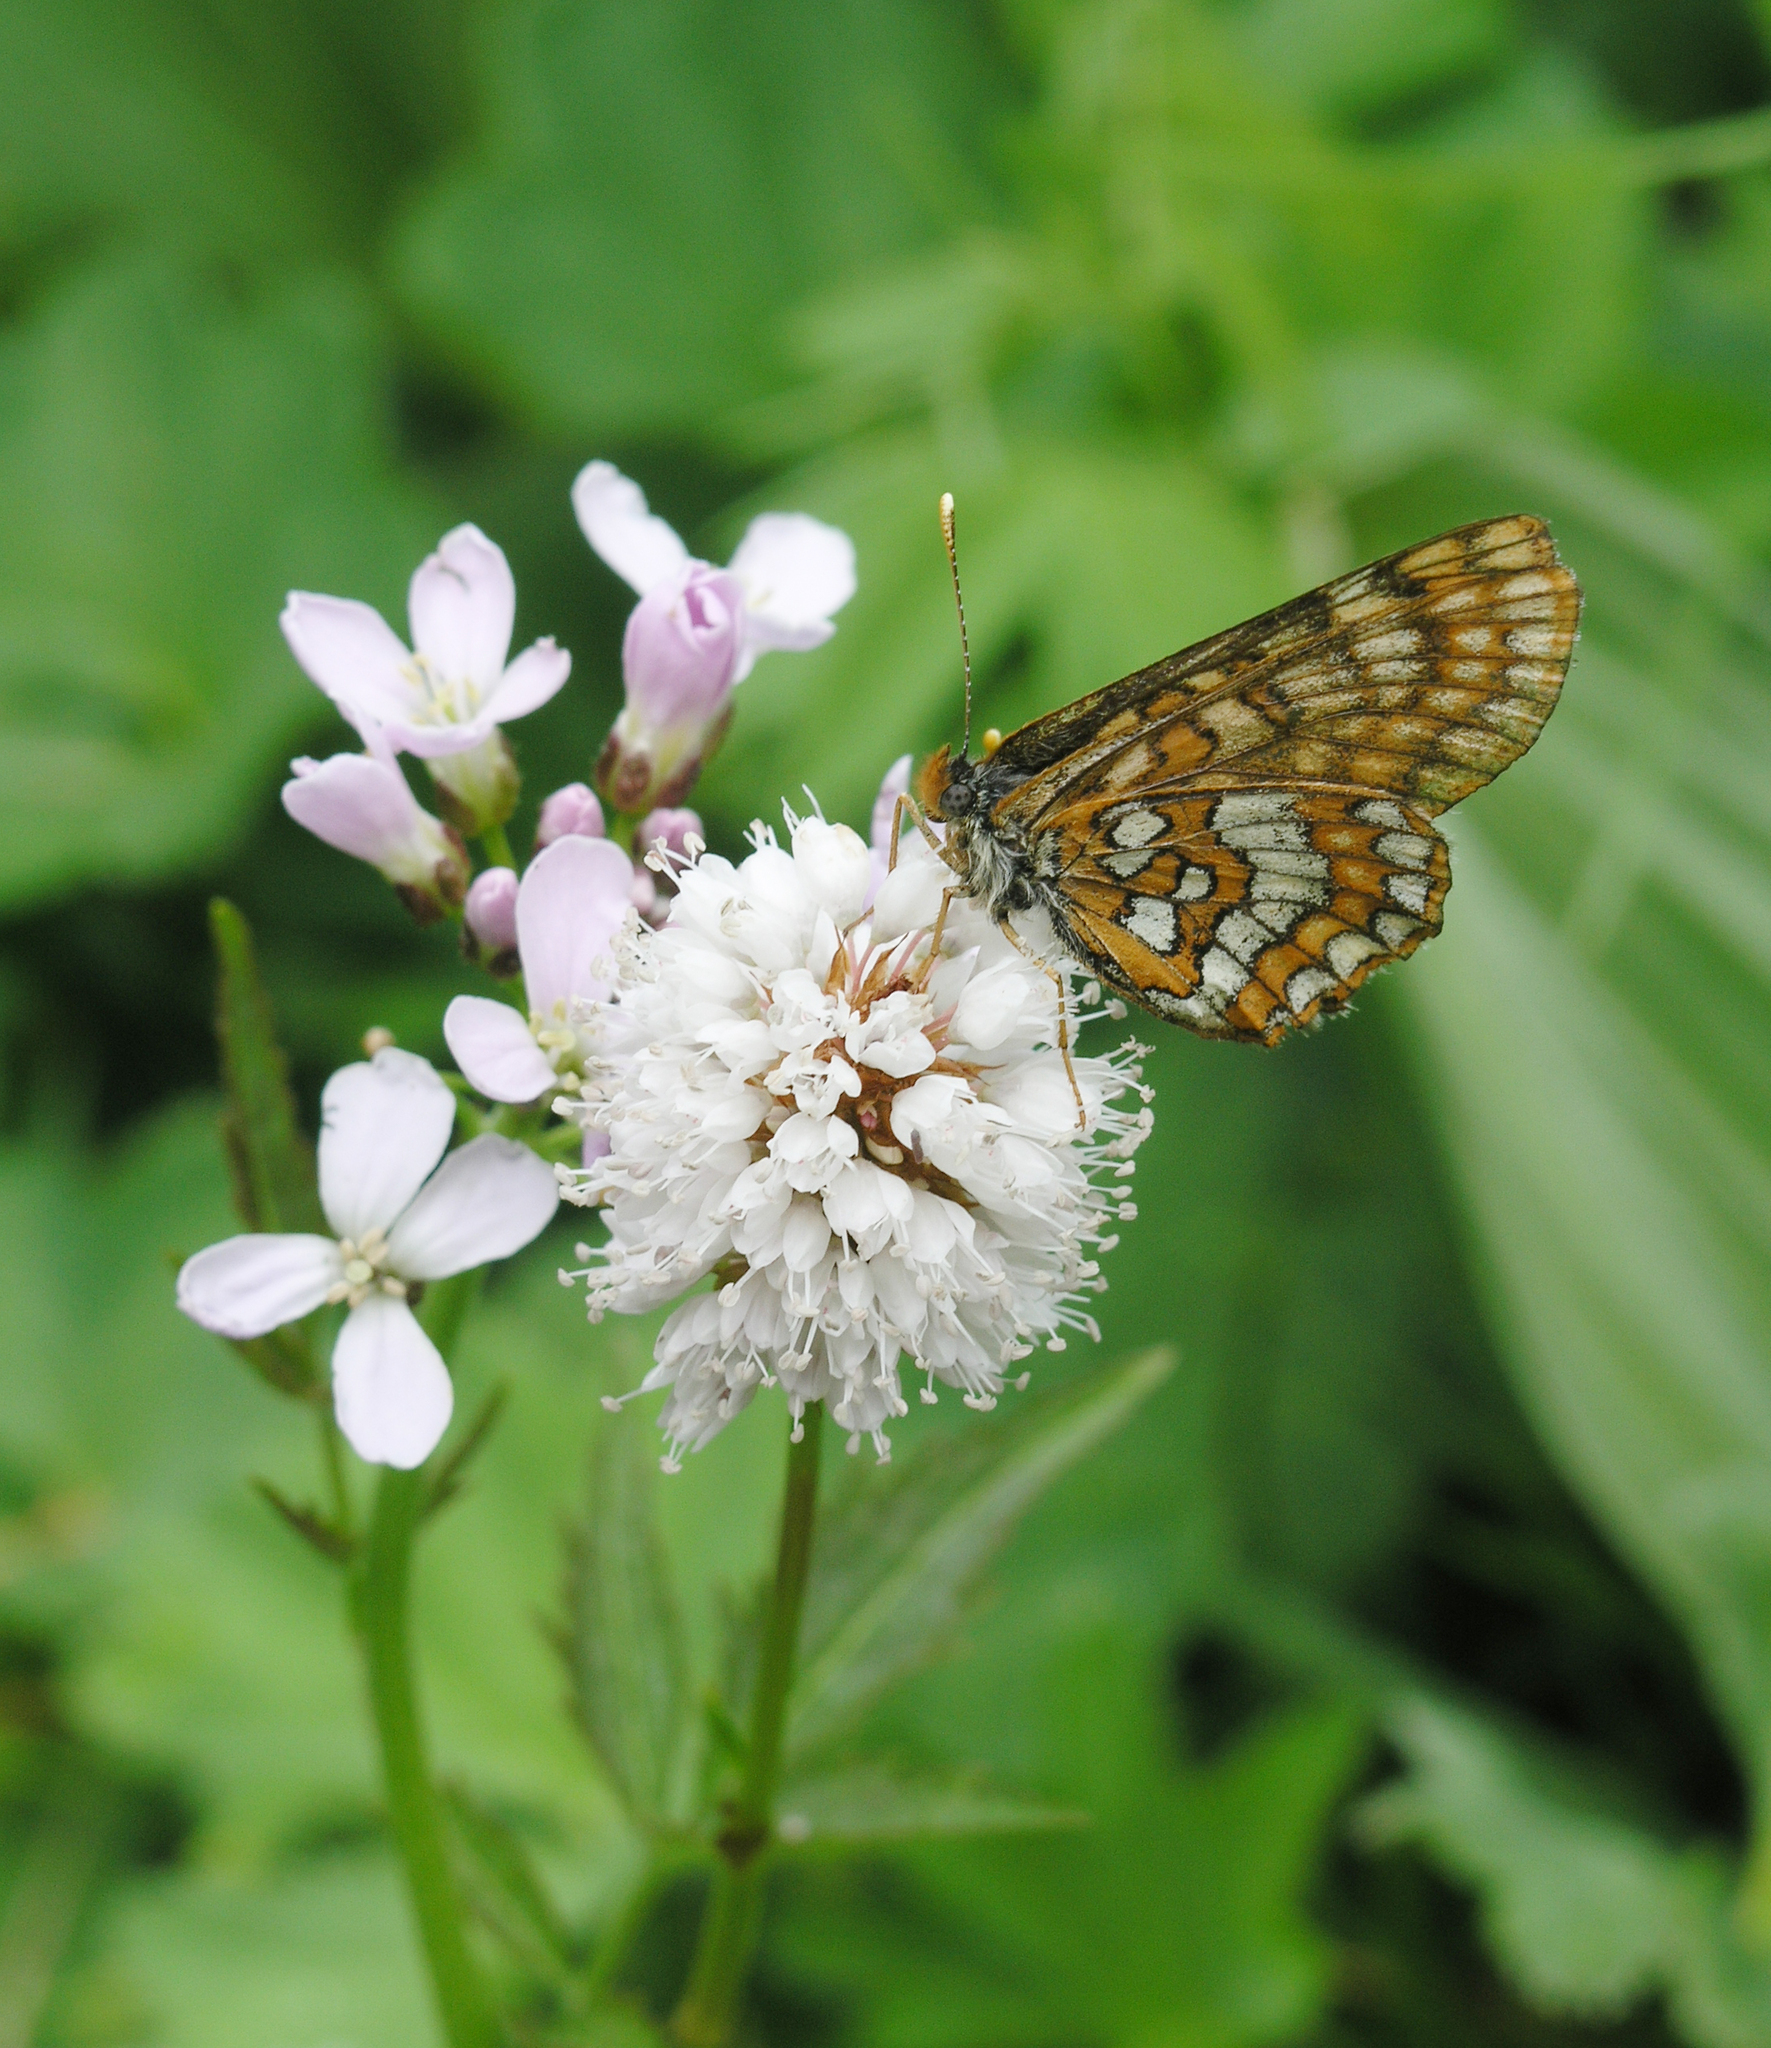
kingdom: Plantae
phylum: Tracheophyta
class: Magnoliopsida
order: Caryophyllales
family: Polygonaceae
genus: Bistorta
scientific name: Bistorta officinalis
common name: Common bistort
